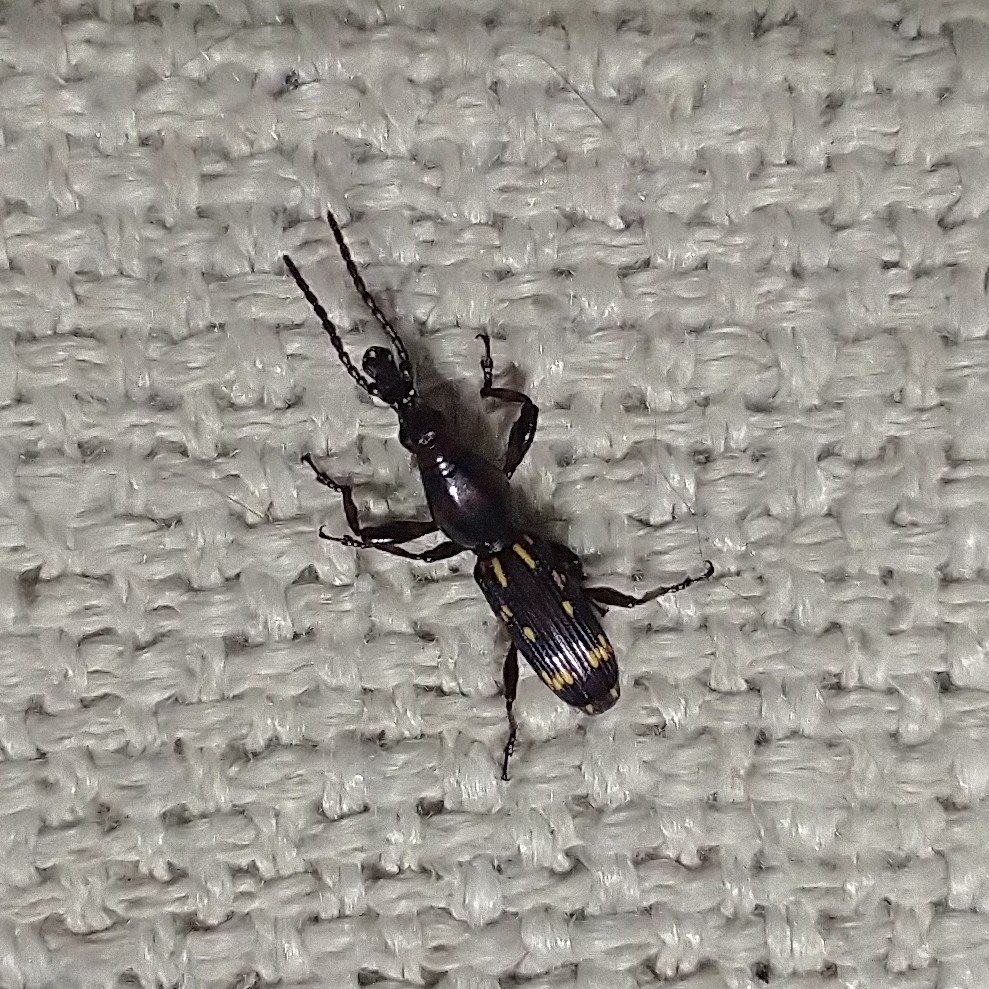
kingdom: Animalia
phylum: Arthropoda
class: Insecta
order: Coleoptera
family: Brentidae
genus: Arrenodes
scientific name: Arrenodes minutus
